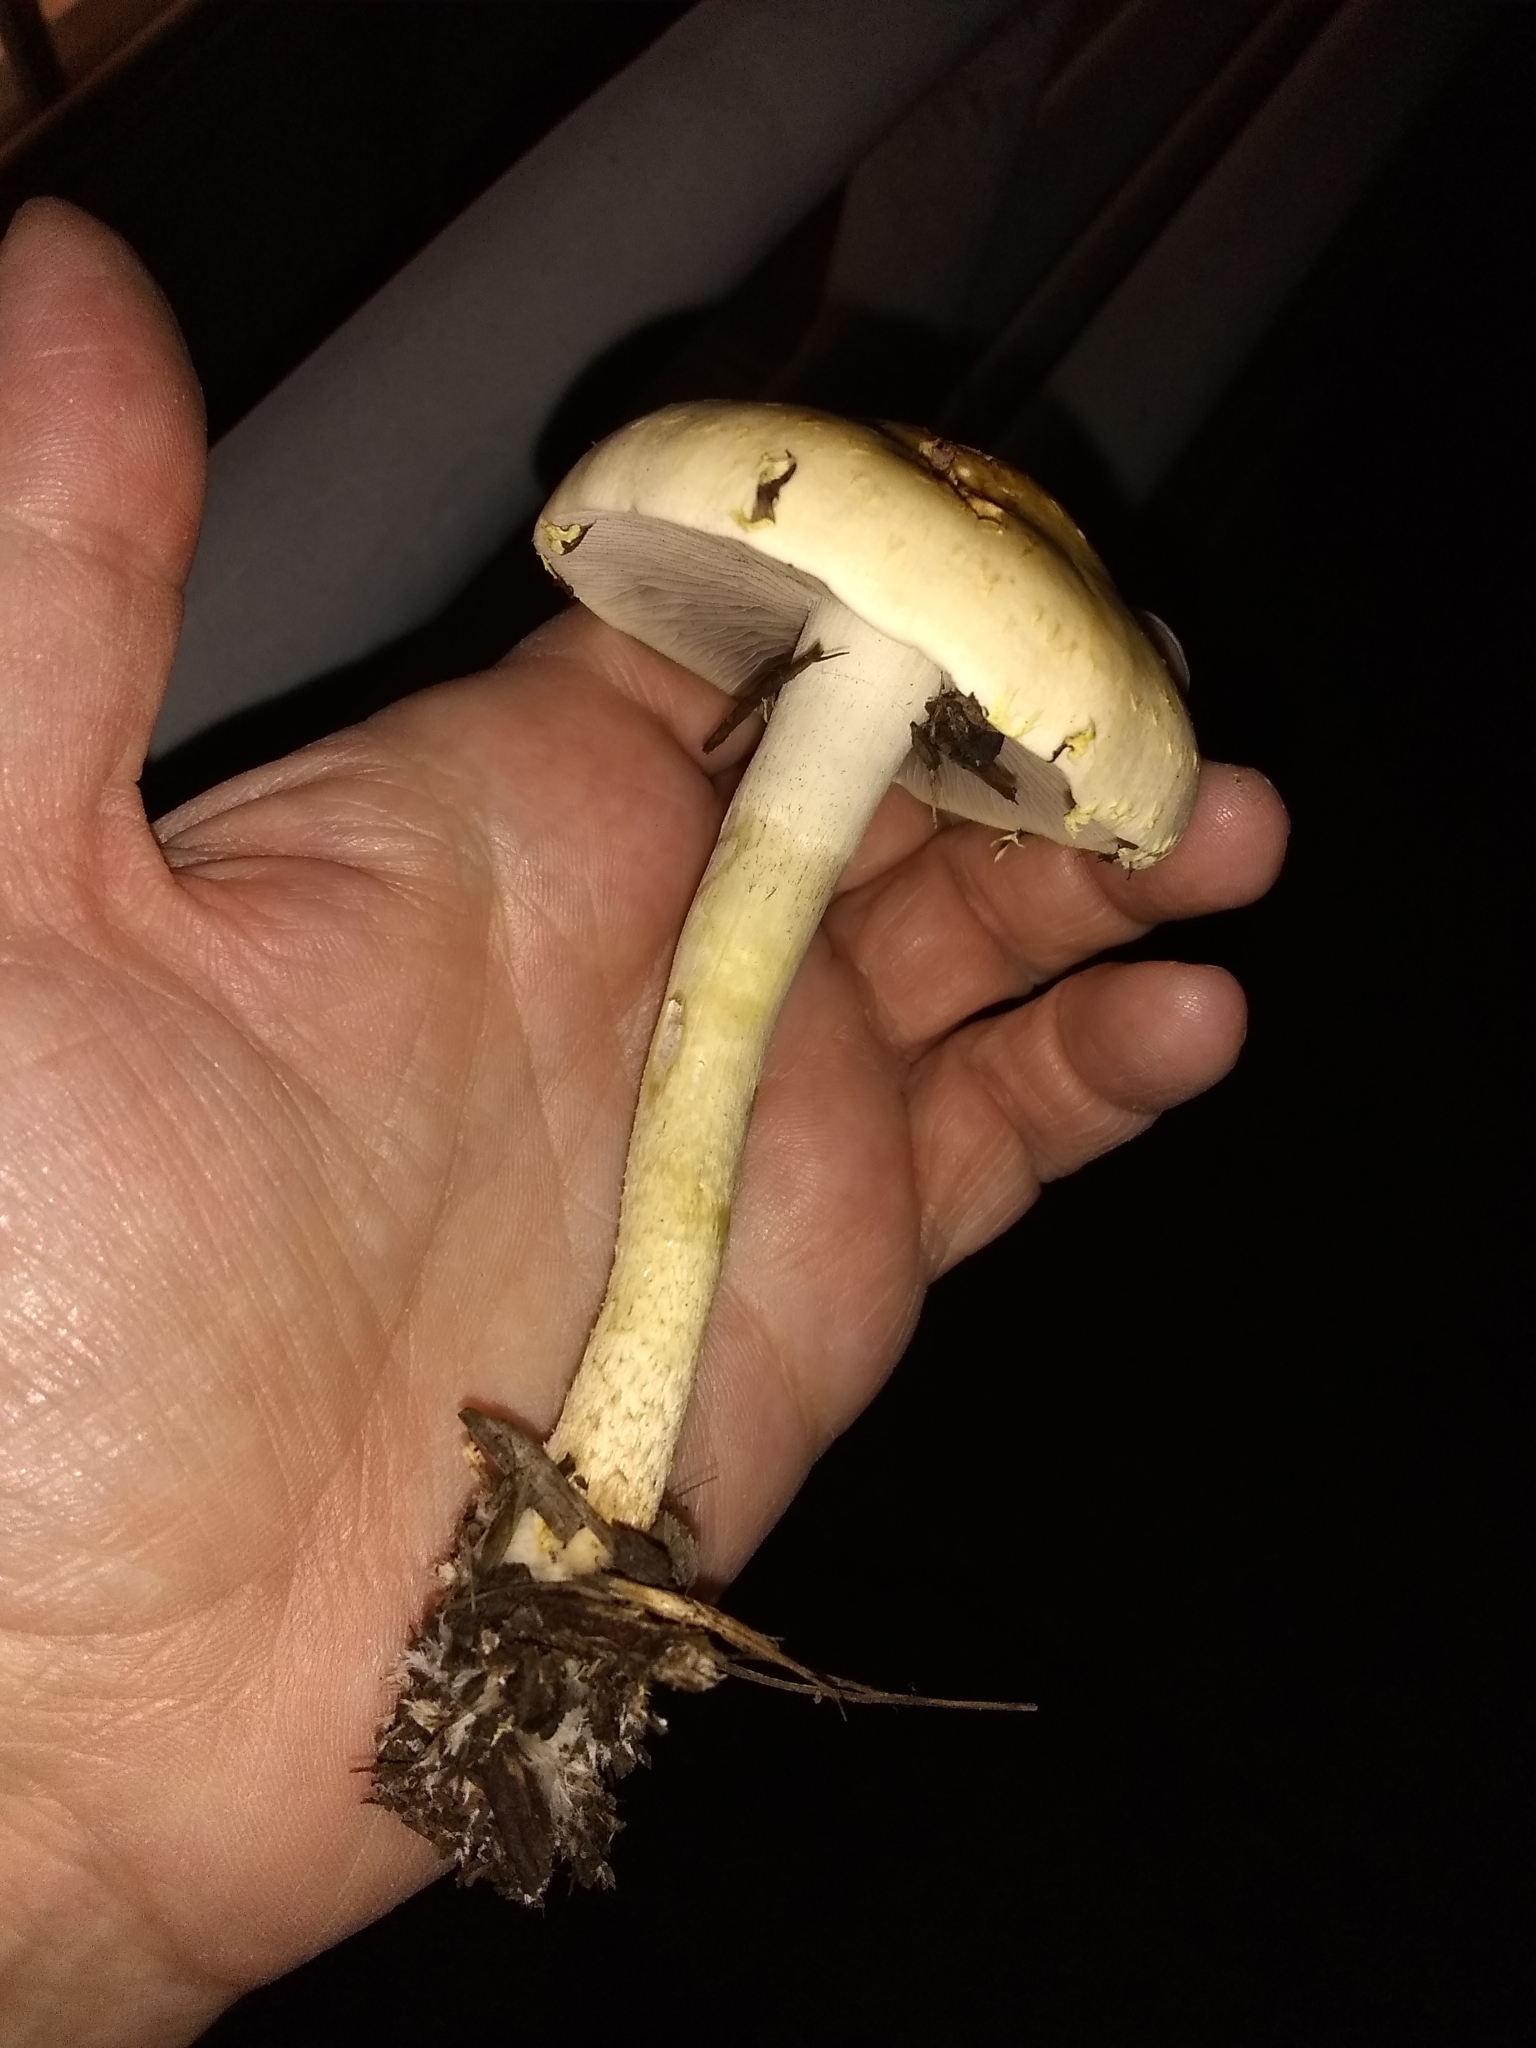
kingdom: Fungi
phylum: Basidiomycota
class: Agaricomycetes
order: Agaricales
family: Strophariaceae
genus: Leratiomyces
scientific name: Leratiomyces percevalii
